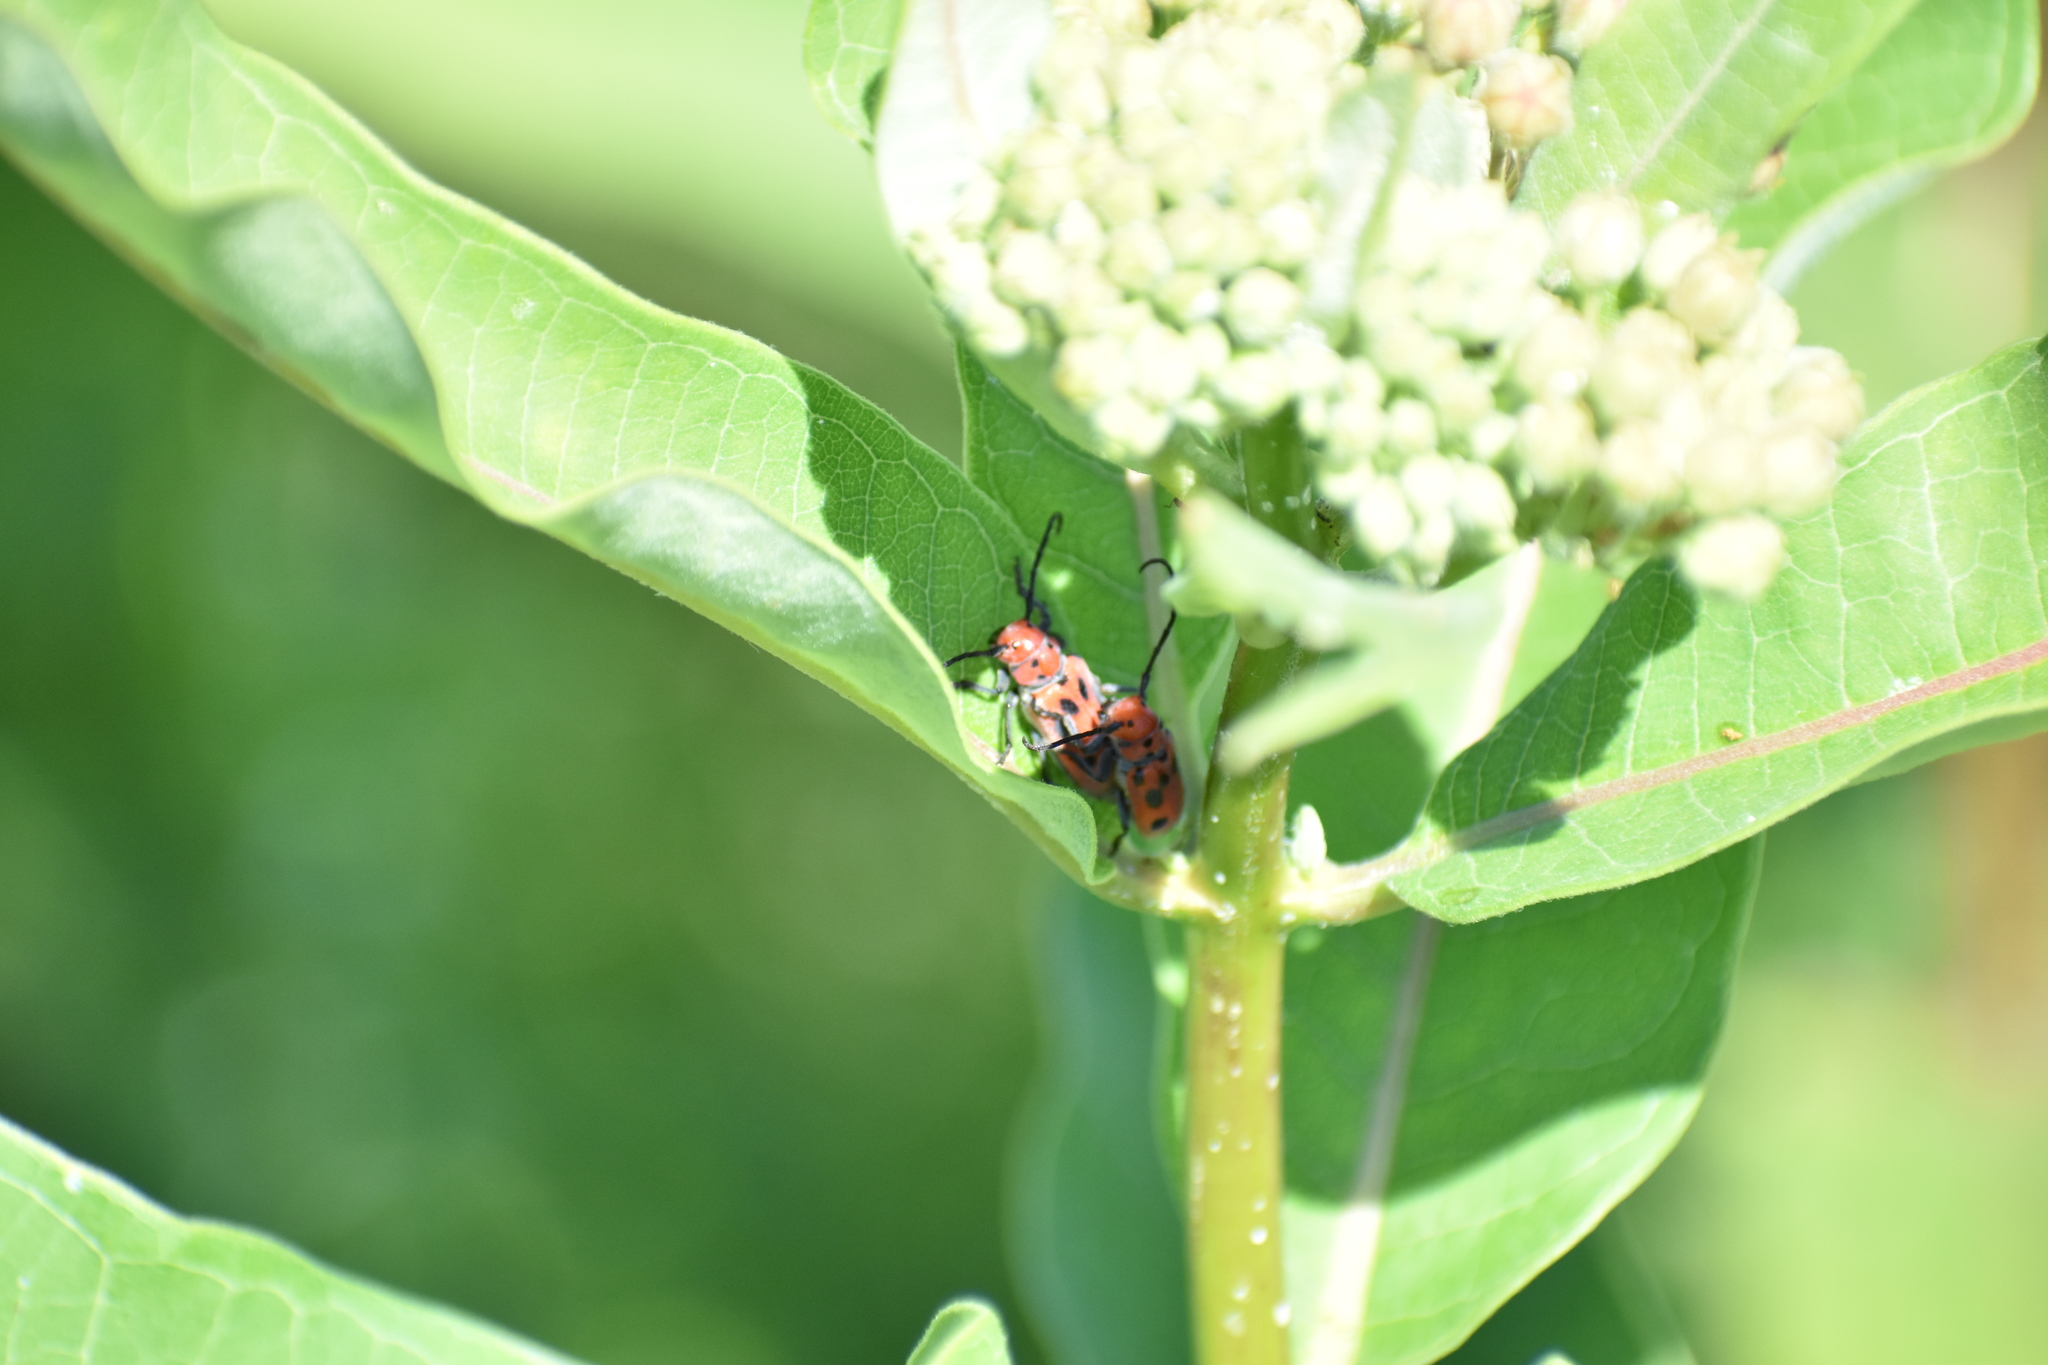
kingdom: Animalia
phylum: Arthropoda
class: Insecta
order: Coleoptera
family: Cerambycidae
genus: Tetraopes
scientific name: Tetraopes tetrophthalmus
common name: Red milkweed beetle
